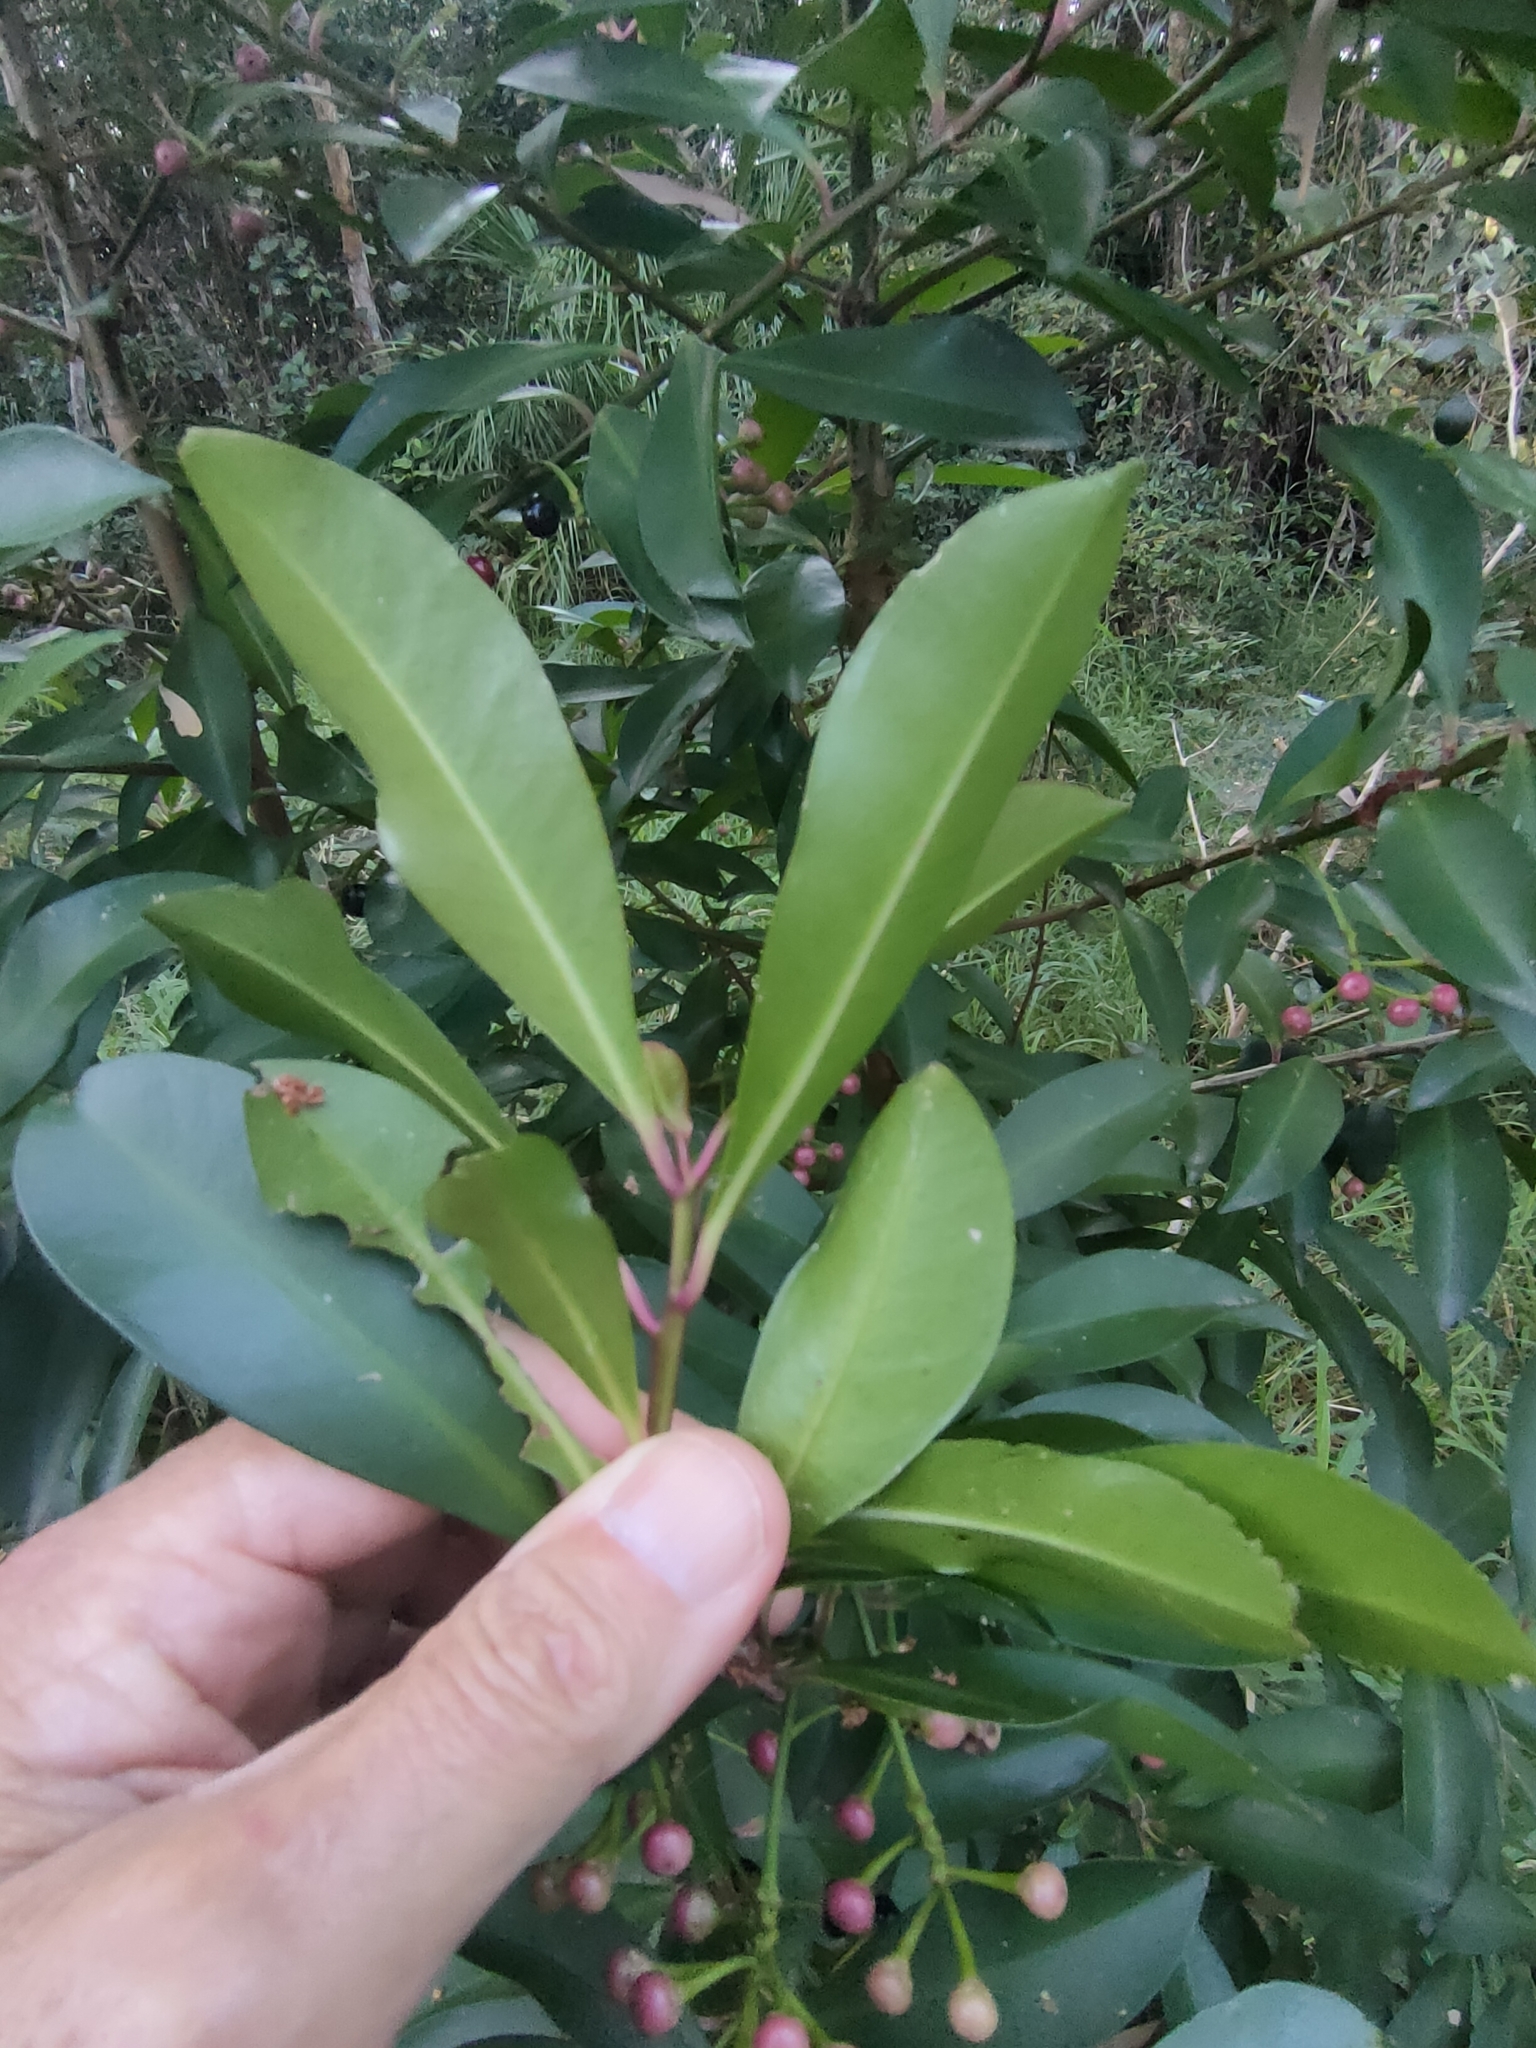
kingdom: Plantae
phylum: Tracheophyta
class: Magnoliopsida
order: Ericales
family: Primulaceae
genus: Ardisia
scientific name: Ardisia elliptica
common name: Shoebutton
